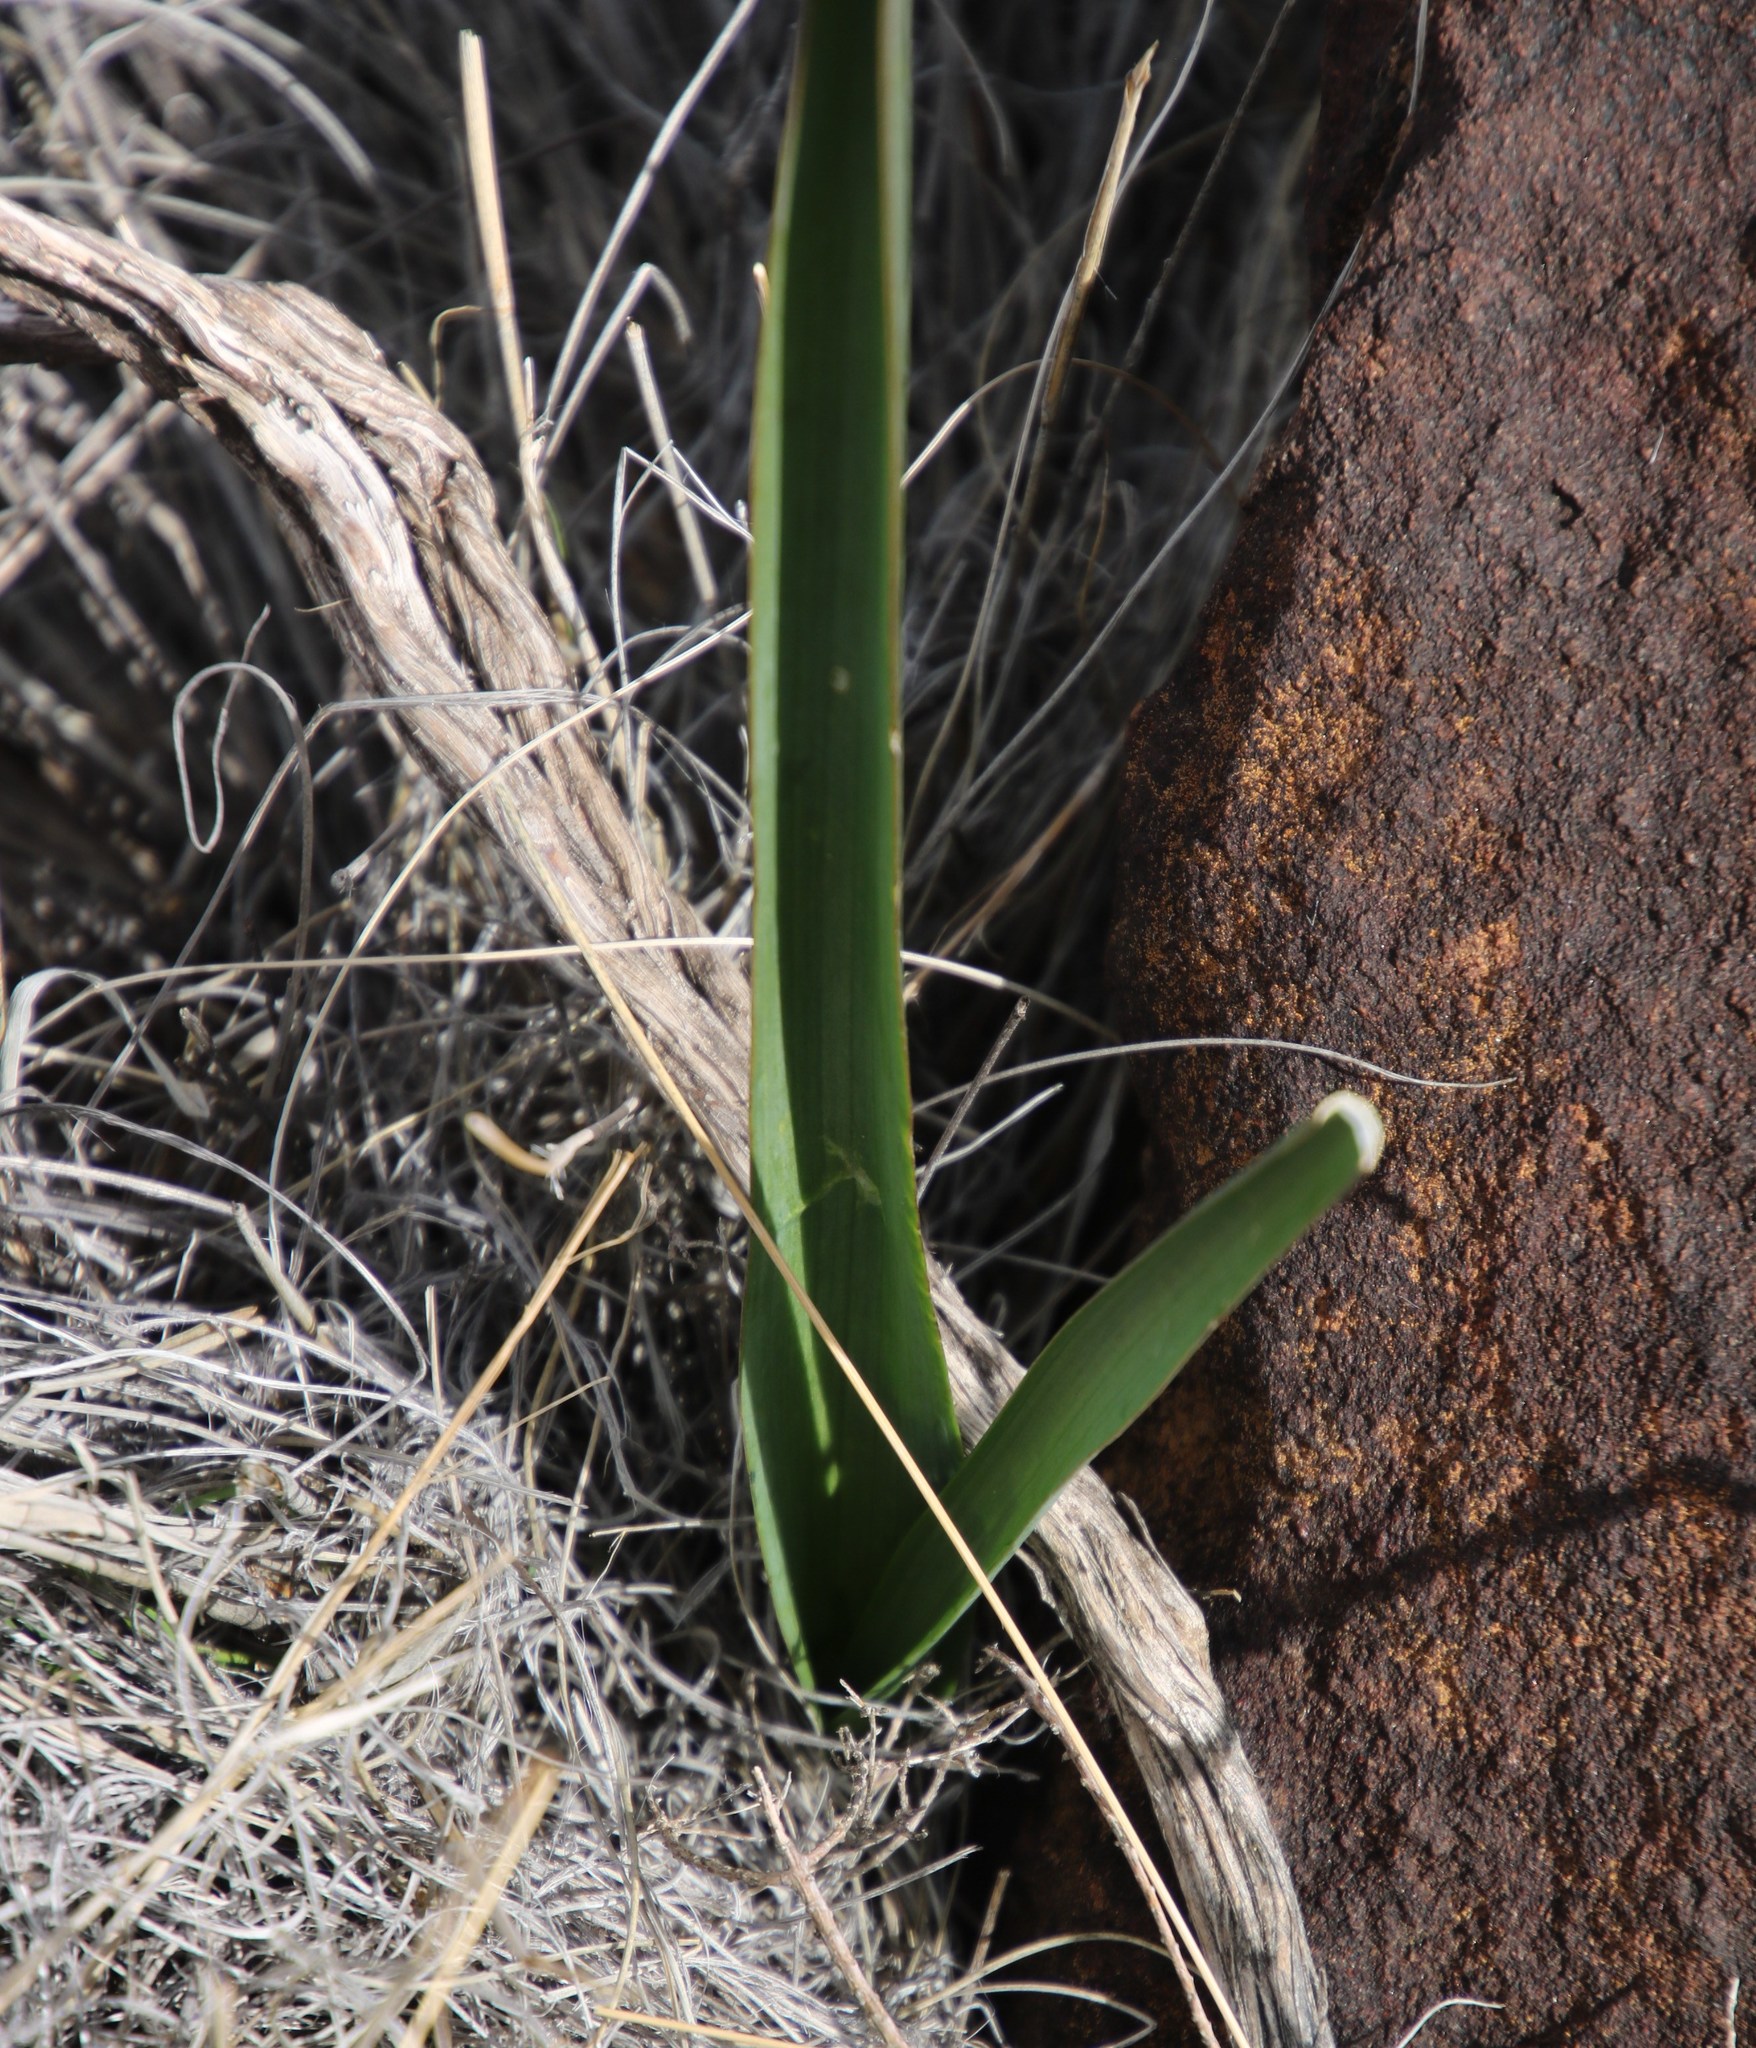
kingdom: Plantae
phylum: Tracheophyta
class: Liliopsida
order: Asparagales
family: Asparagaceae
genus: Albuca
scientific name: Albuca setosa
